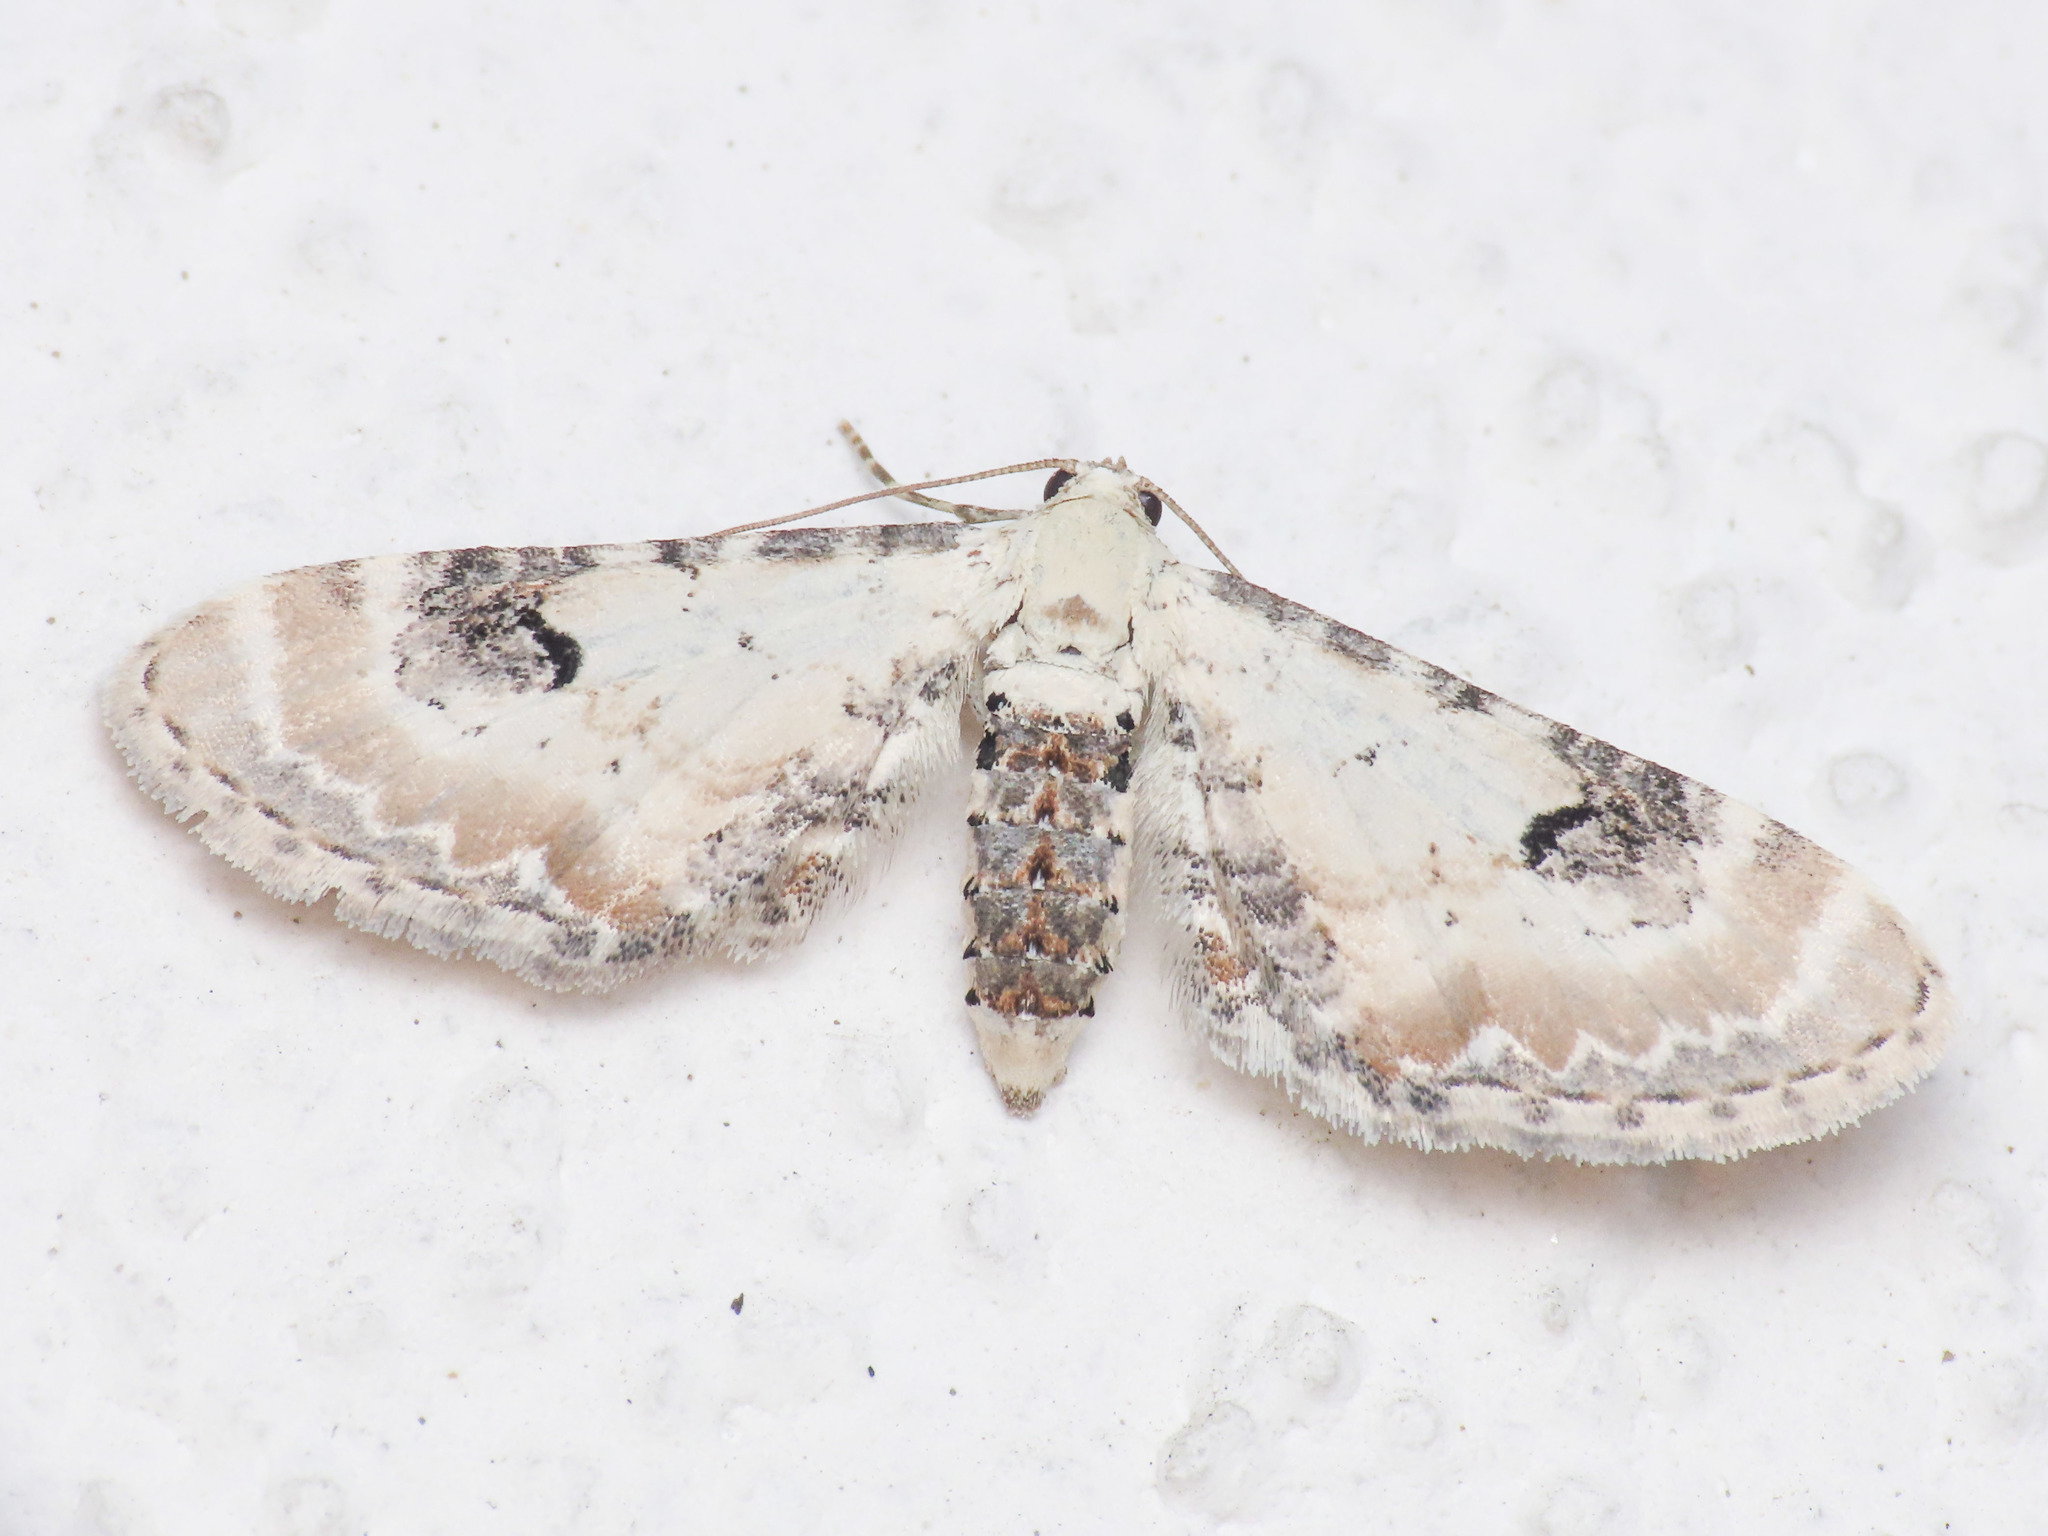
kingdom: Animalia
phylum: Arthropoda
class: Insecta
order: Lepidoptera
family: Geometridae
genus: Eupithecia
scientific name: Eupithecia centaureata
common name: Lime-speck pug
